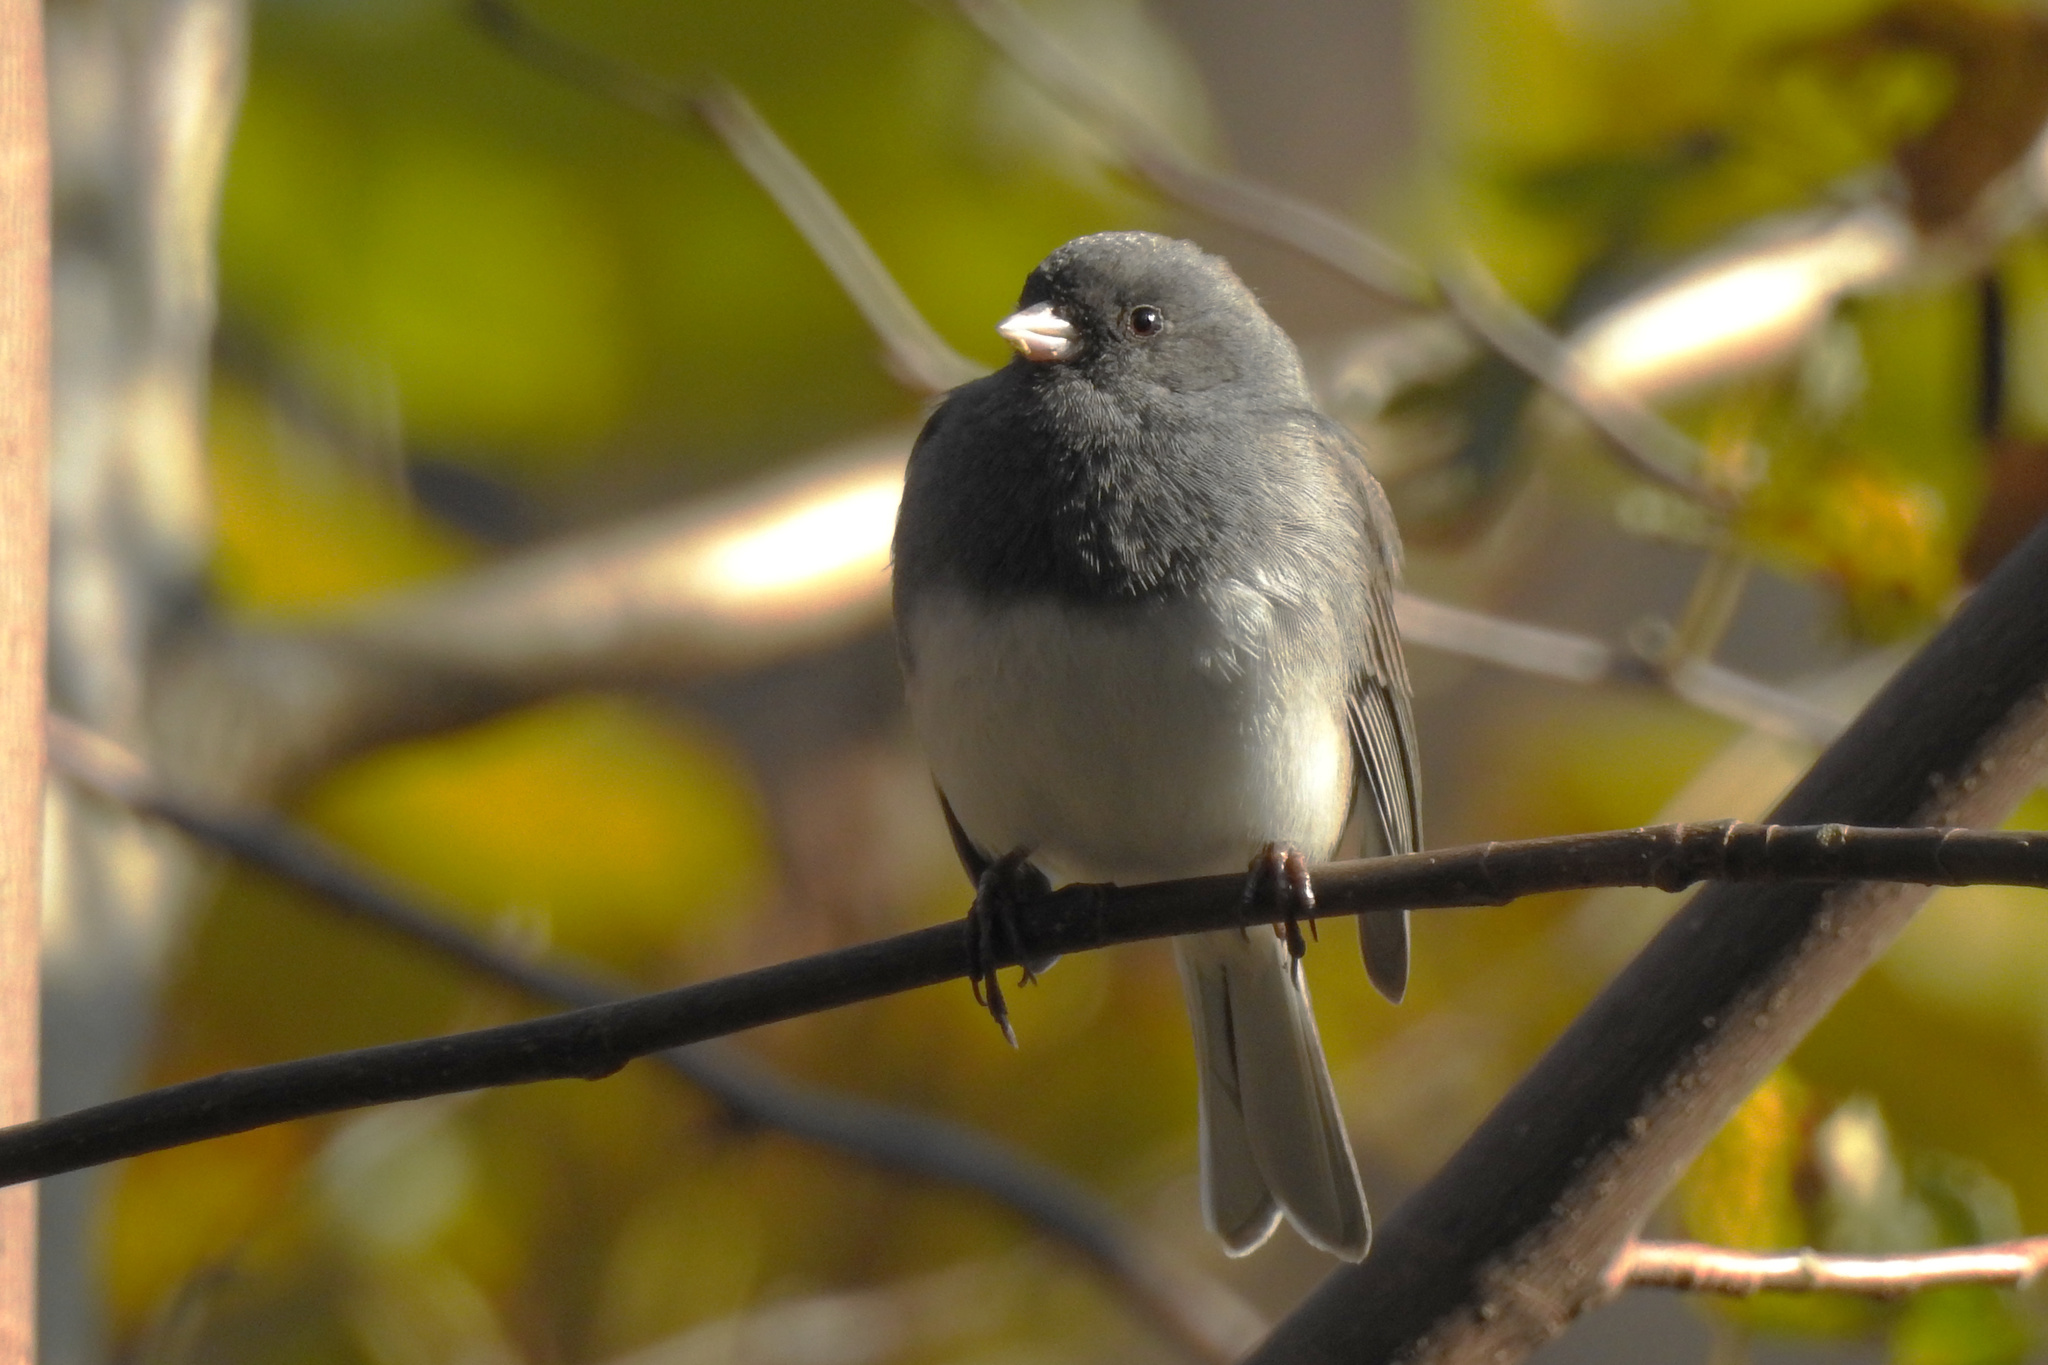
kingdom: Animalia
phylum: Chordata
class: Aves
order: Passeriformes
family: Passerellidae
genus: Junco
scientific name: Junco hyemalis
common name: Dark-eyed junco
